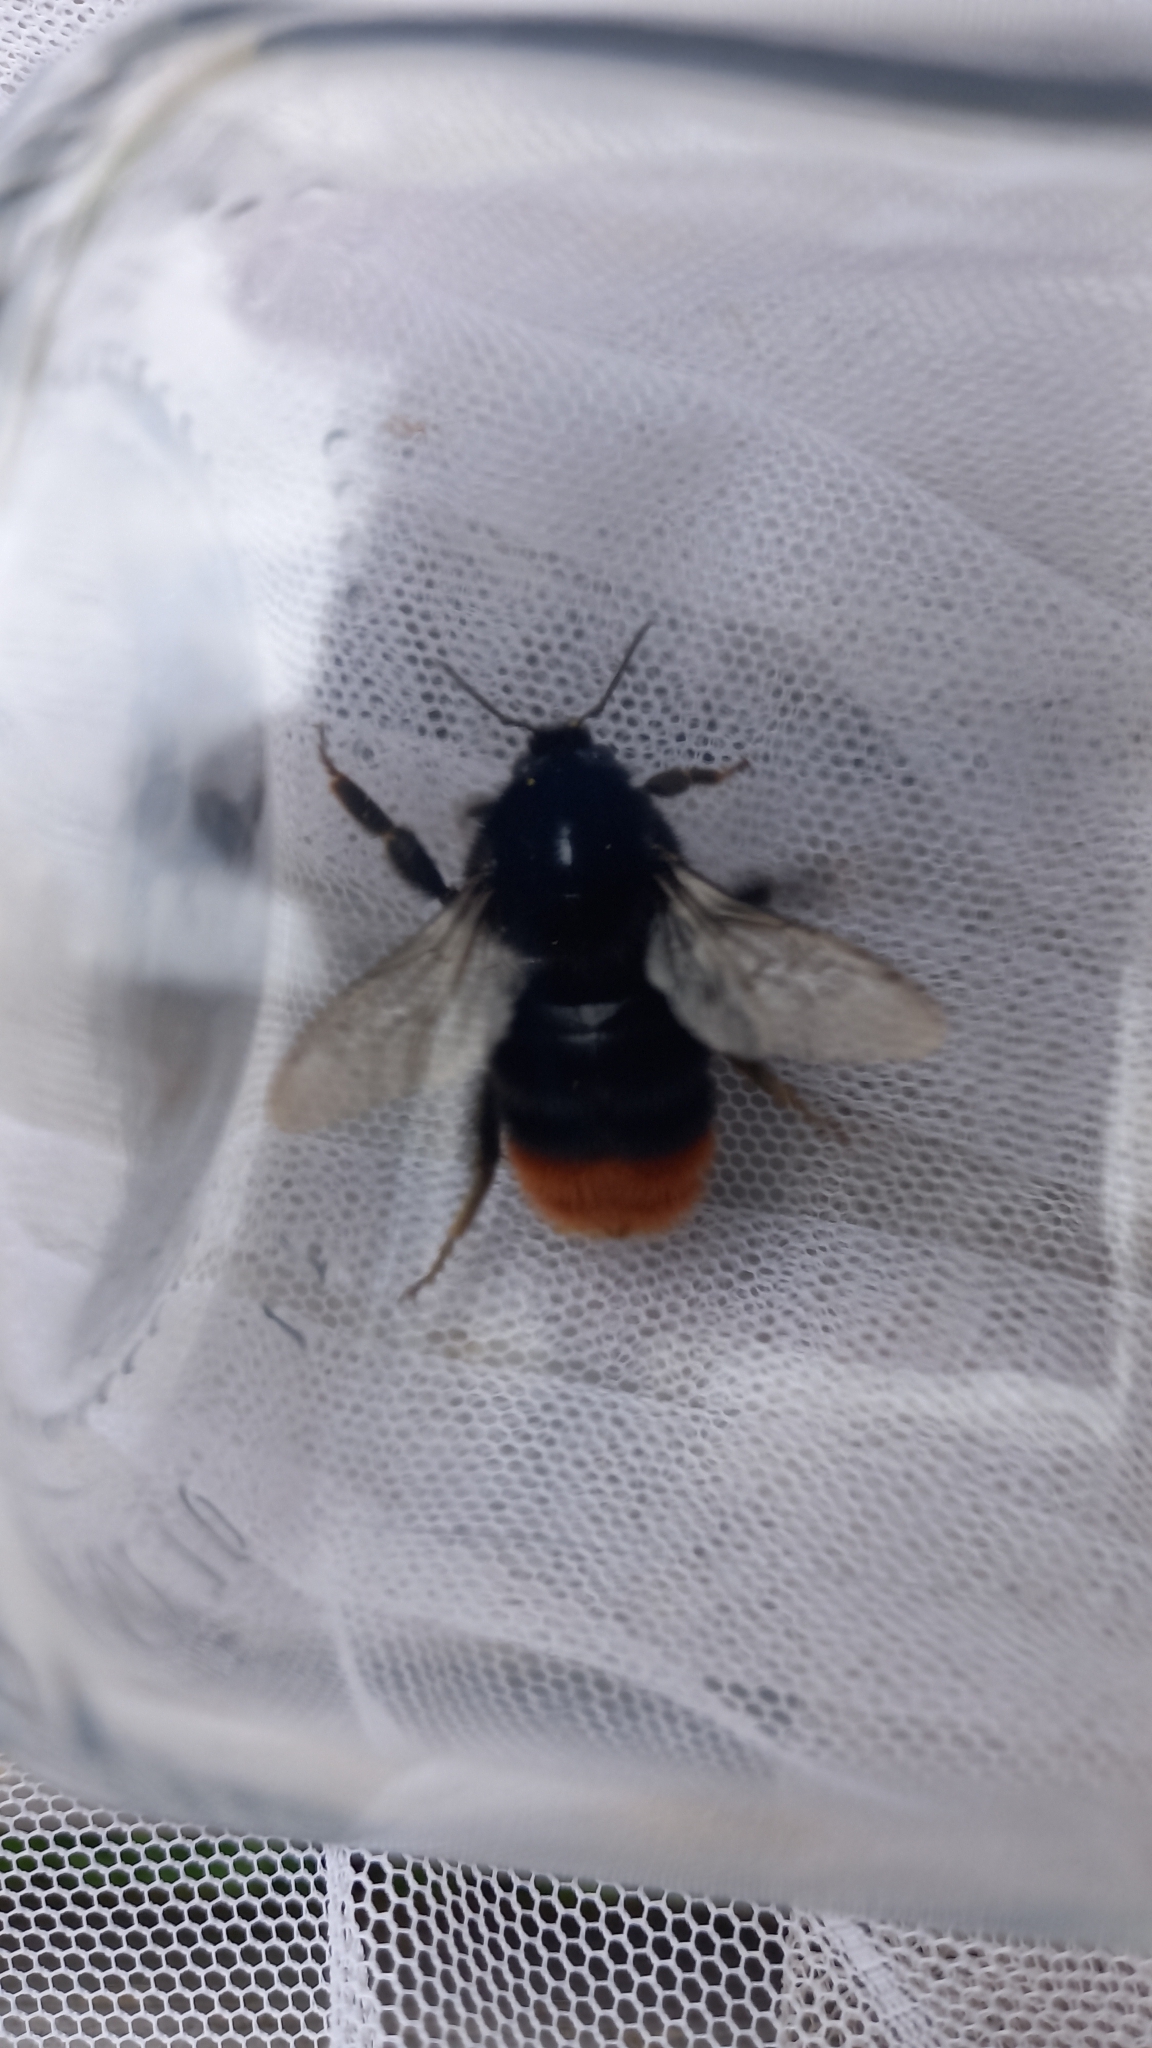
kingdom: Animalia
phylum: Arthropoda
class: Insecta
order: Hymenoptera
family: Apidae
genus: Bombus
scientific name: Bombus lapidarius
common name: Large red-tailed humble-bee
